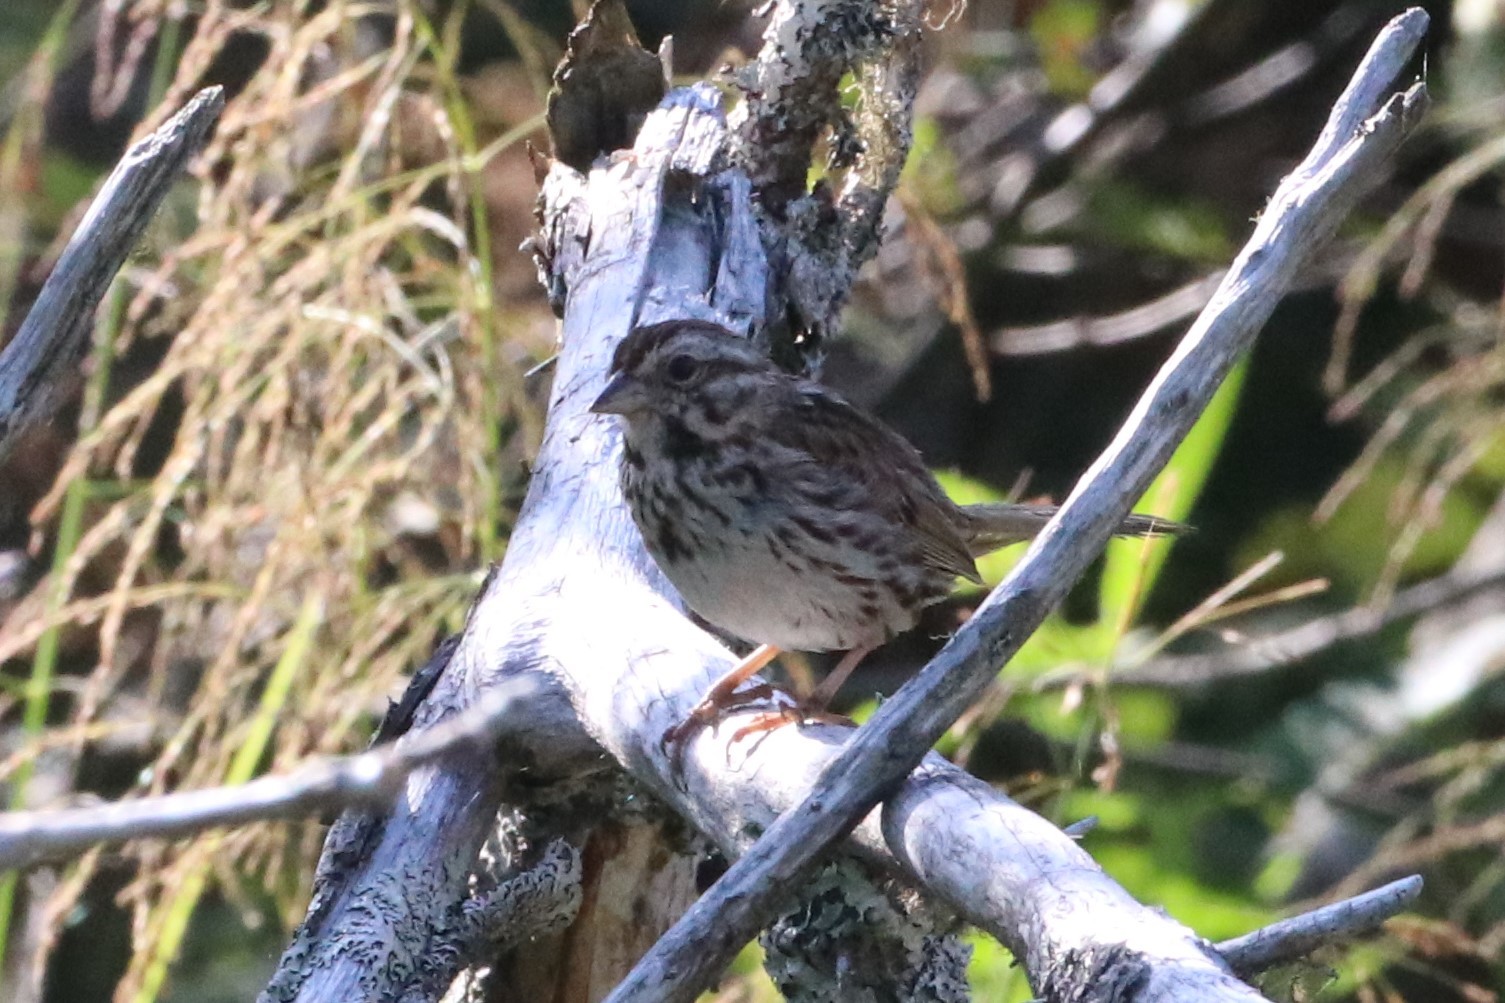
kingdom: Animalia
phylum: Chordata
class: Aves
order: Passeriformes
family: Passerellidae
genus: Melospiza
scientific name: Melospiza melodia
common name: Song sparrow
